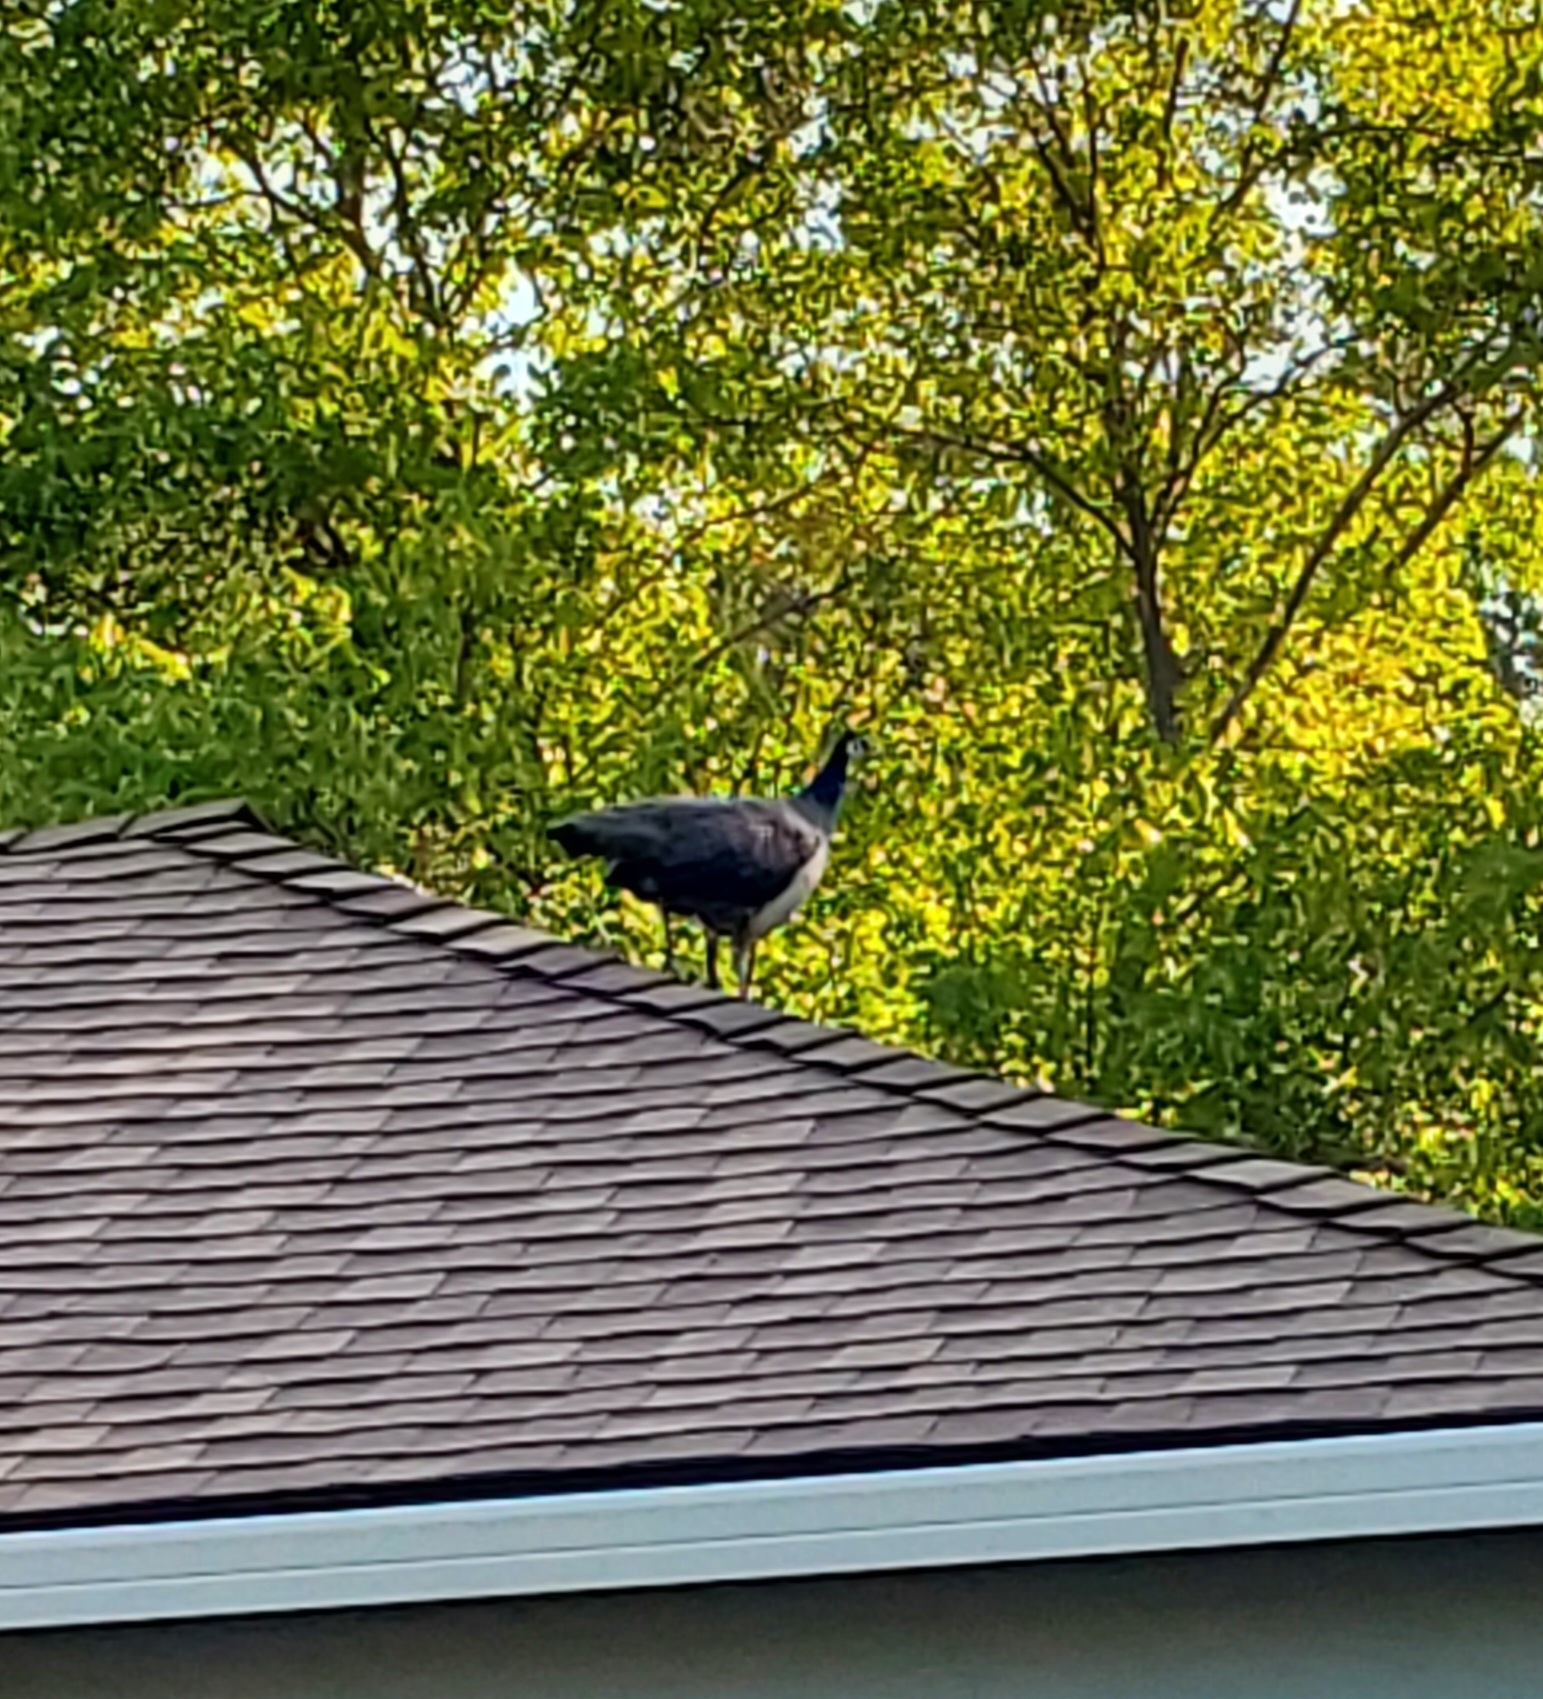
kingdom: Animalia
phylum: Chordata
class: Aves
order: Galliformes
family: Phasianidae
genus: Pavo
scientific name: Pavo cristatus
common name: Indian peafowl
